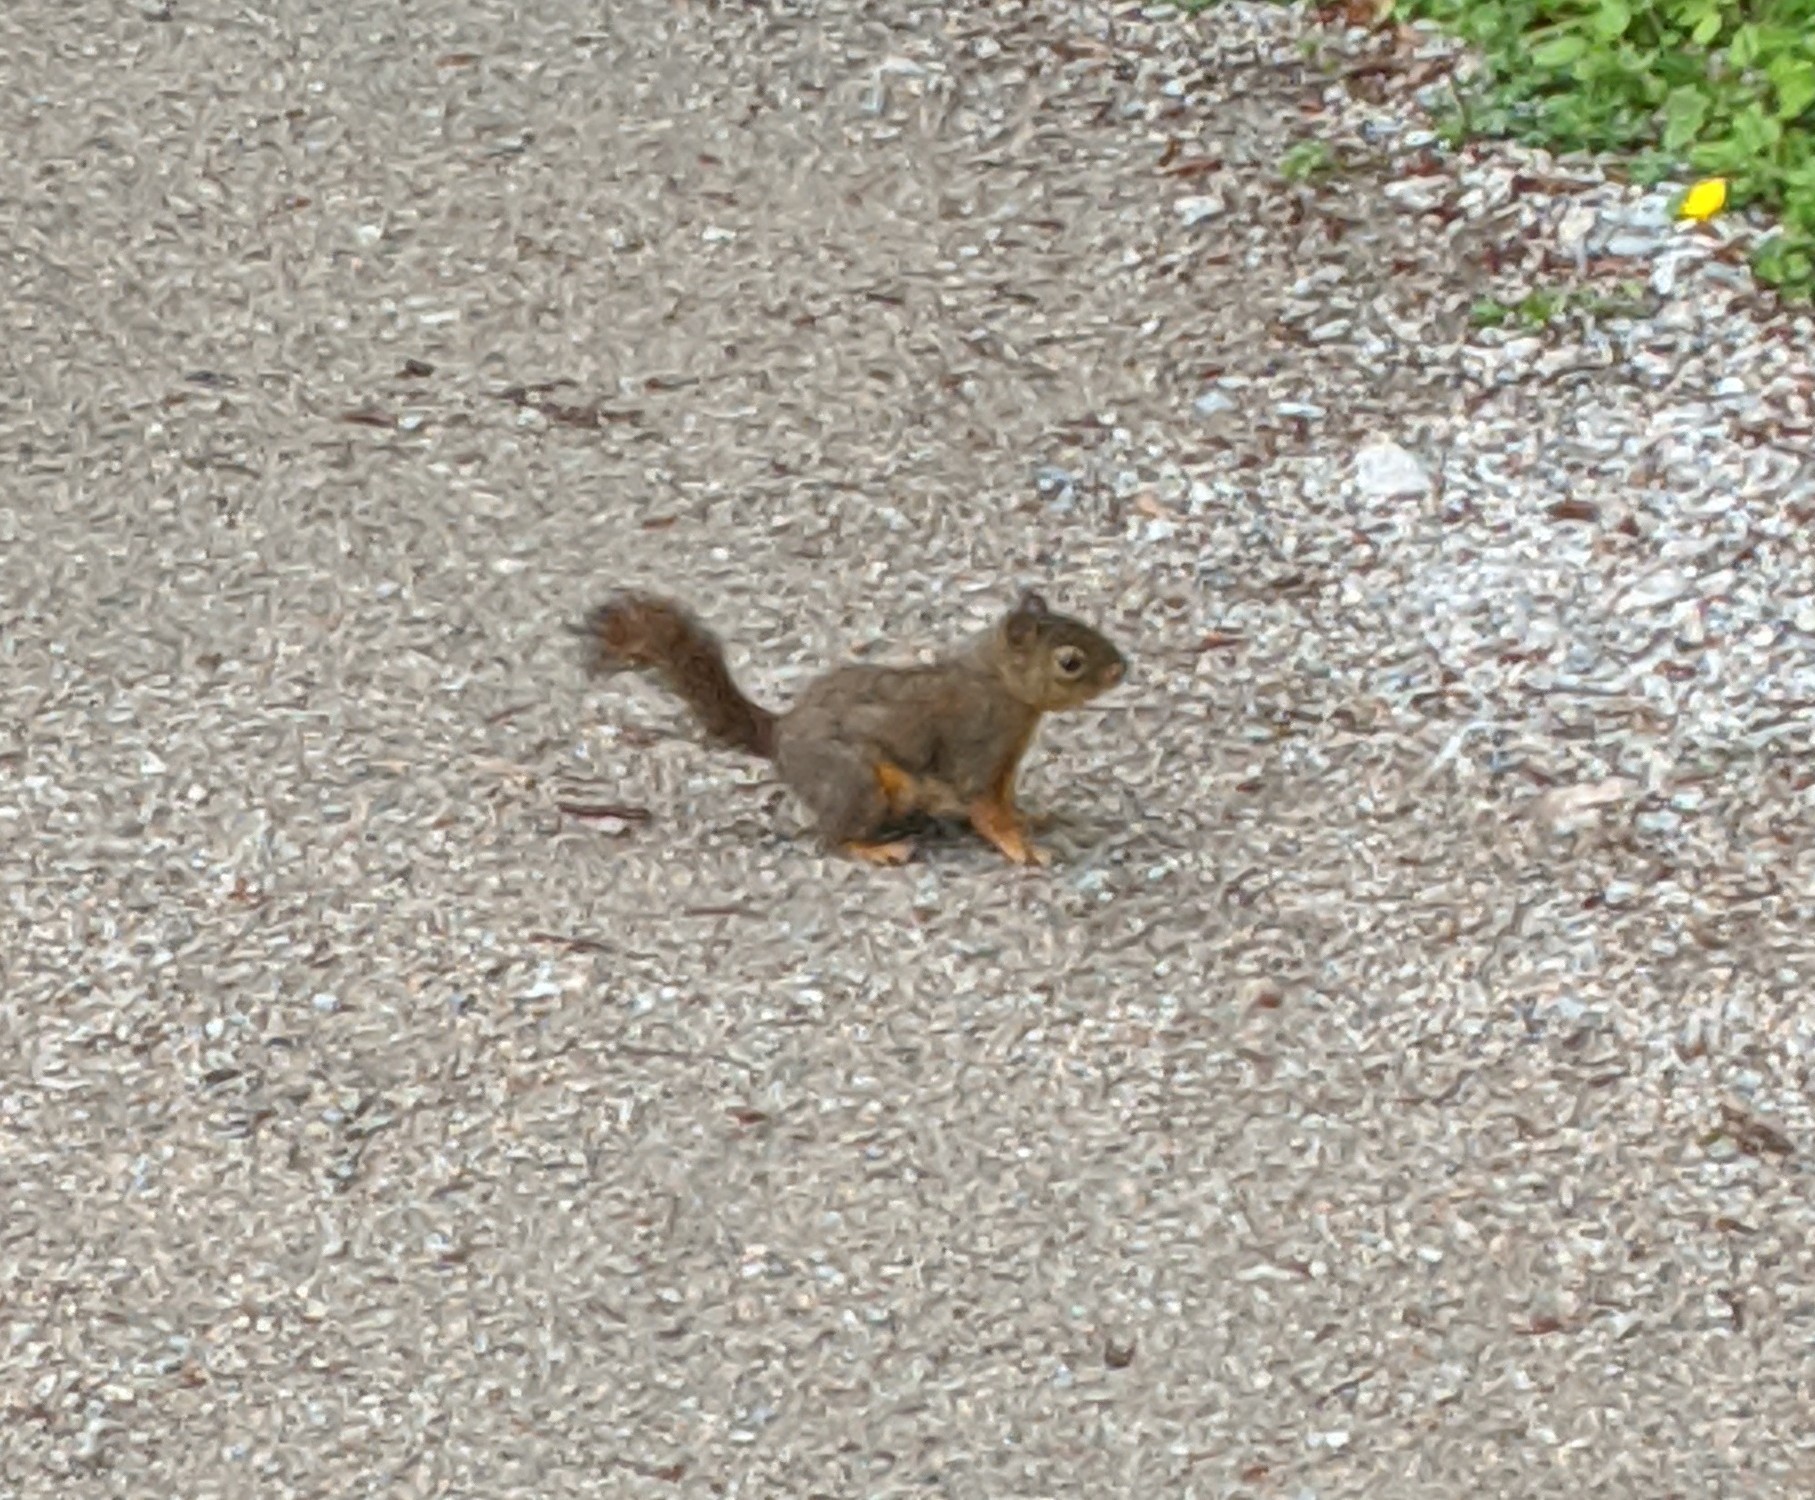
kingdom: Animalia
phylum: Chordata
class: Mammalia
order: Rodentia
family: Sciuridae
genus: Tamiasciurus
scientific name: Tamiasciurus douglasii
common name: Douglas's squirrel
